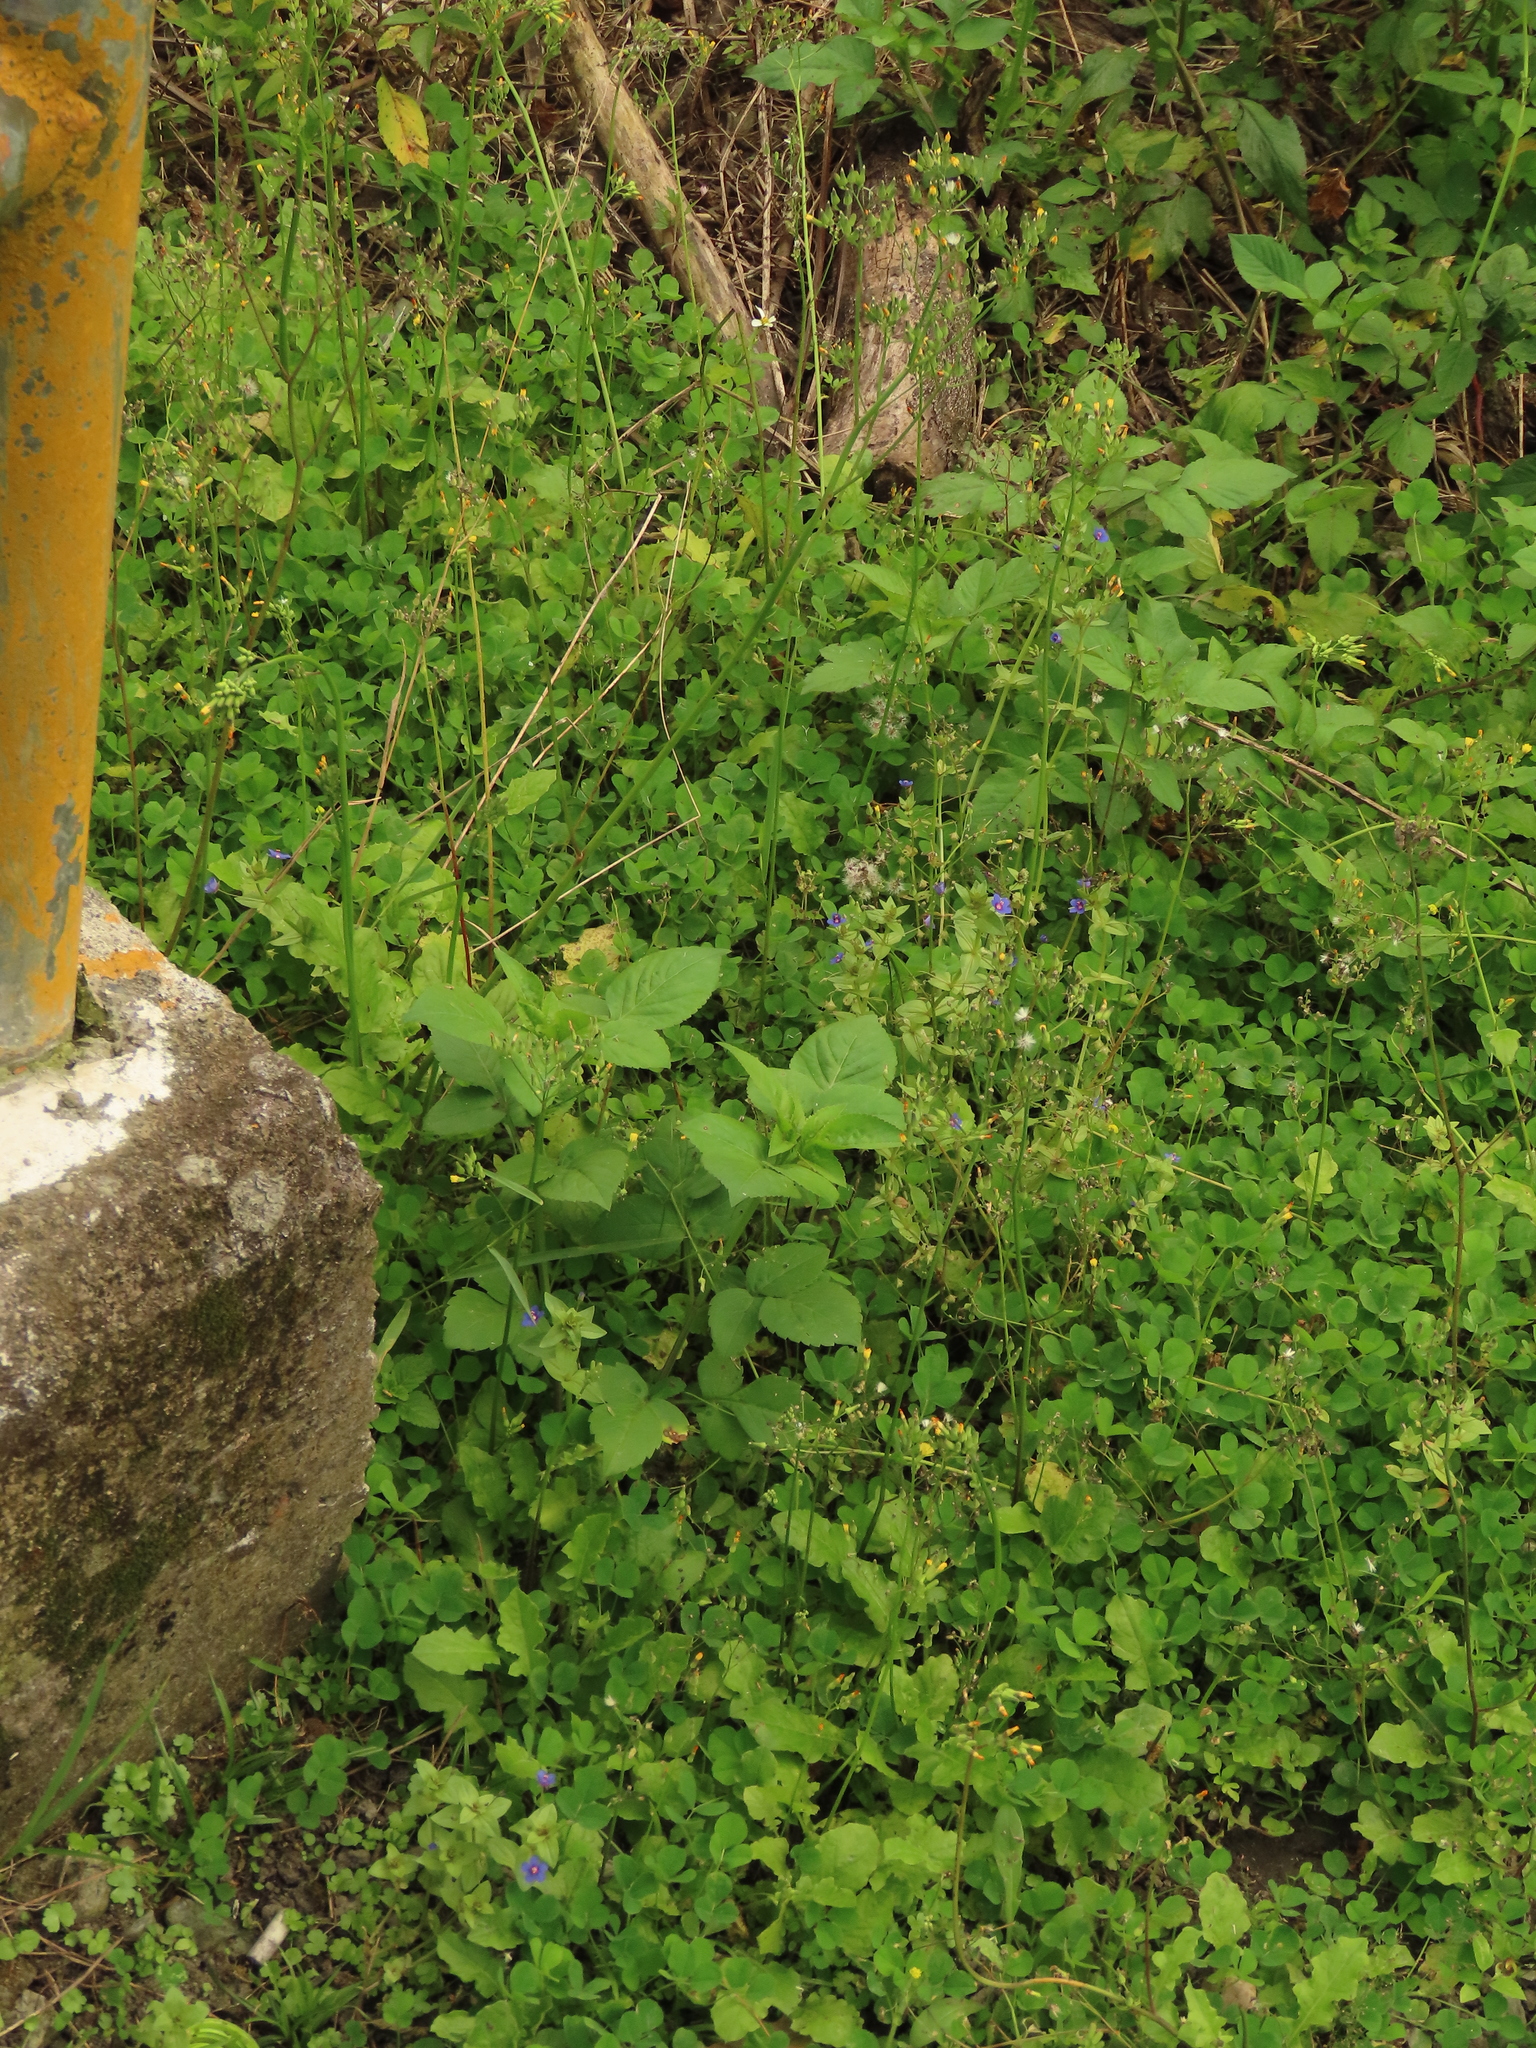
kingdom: Plantae
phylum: Tracheophyta
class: Magnoliopsida
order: Ericales
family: Primulaceae
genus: Lysimachia
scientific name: Lysimachia loeflingii
